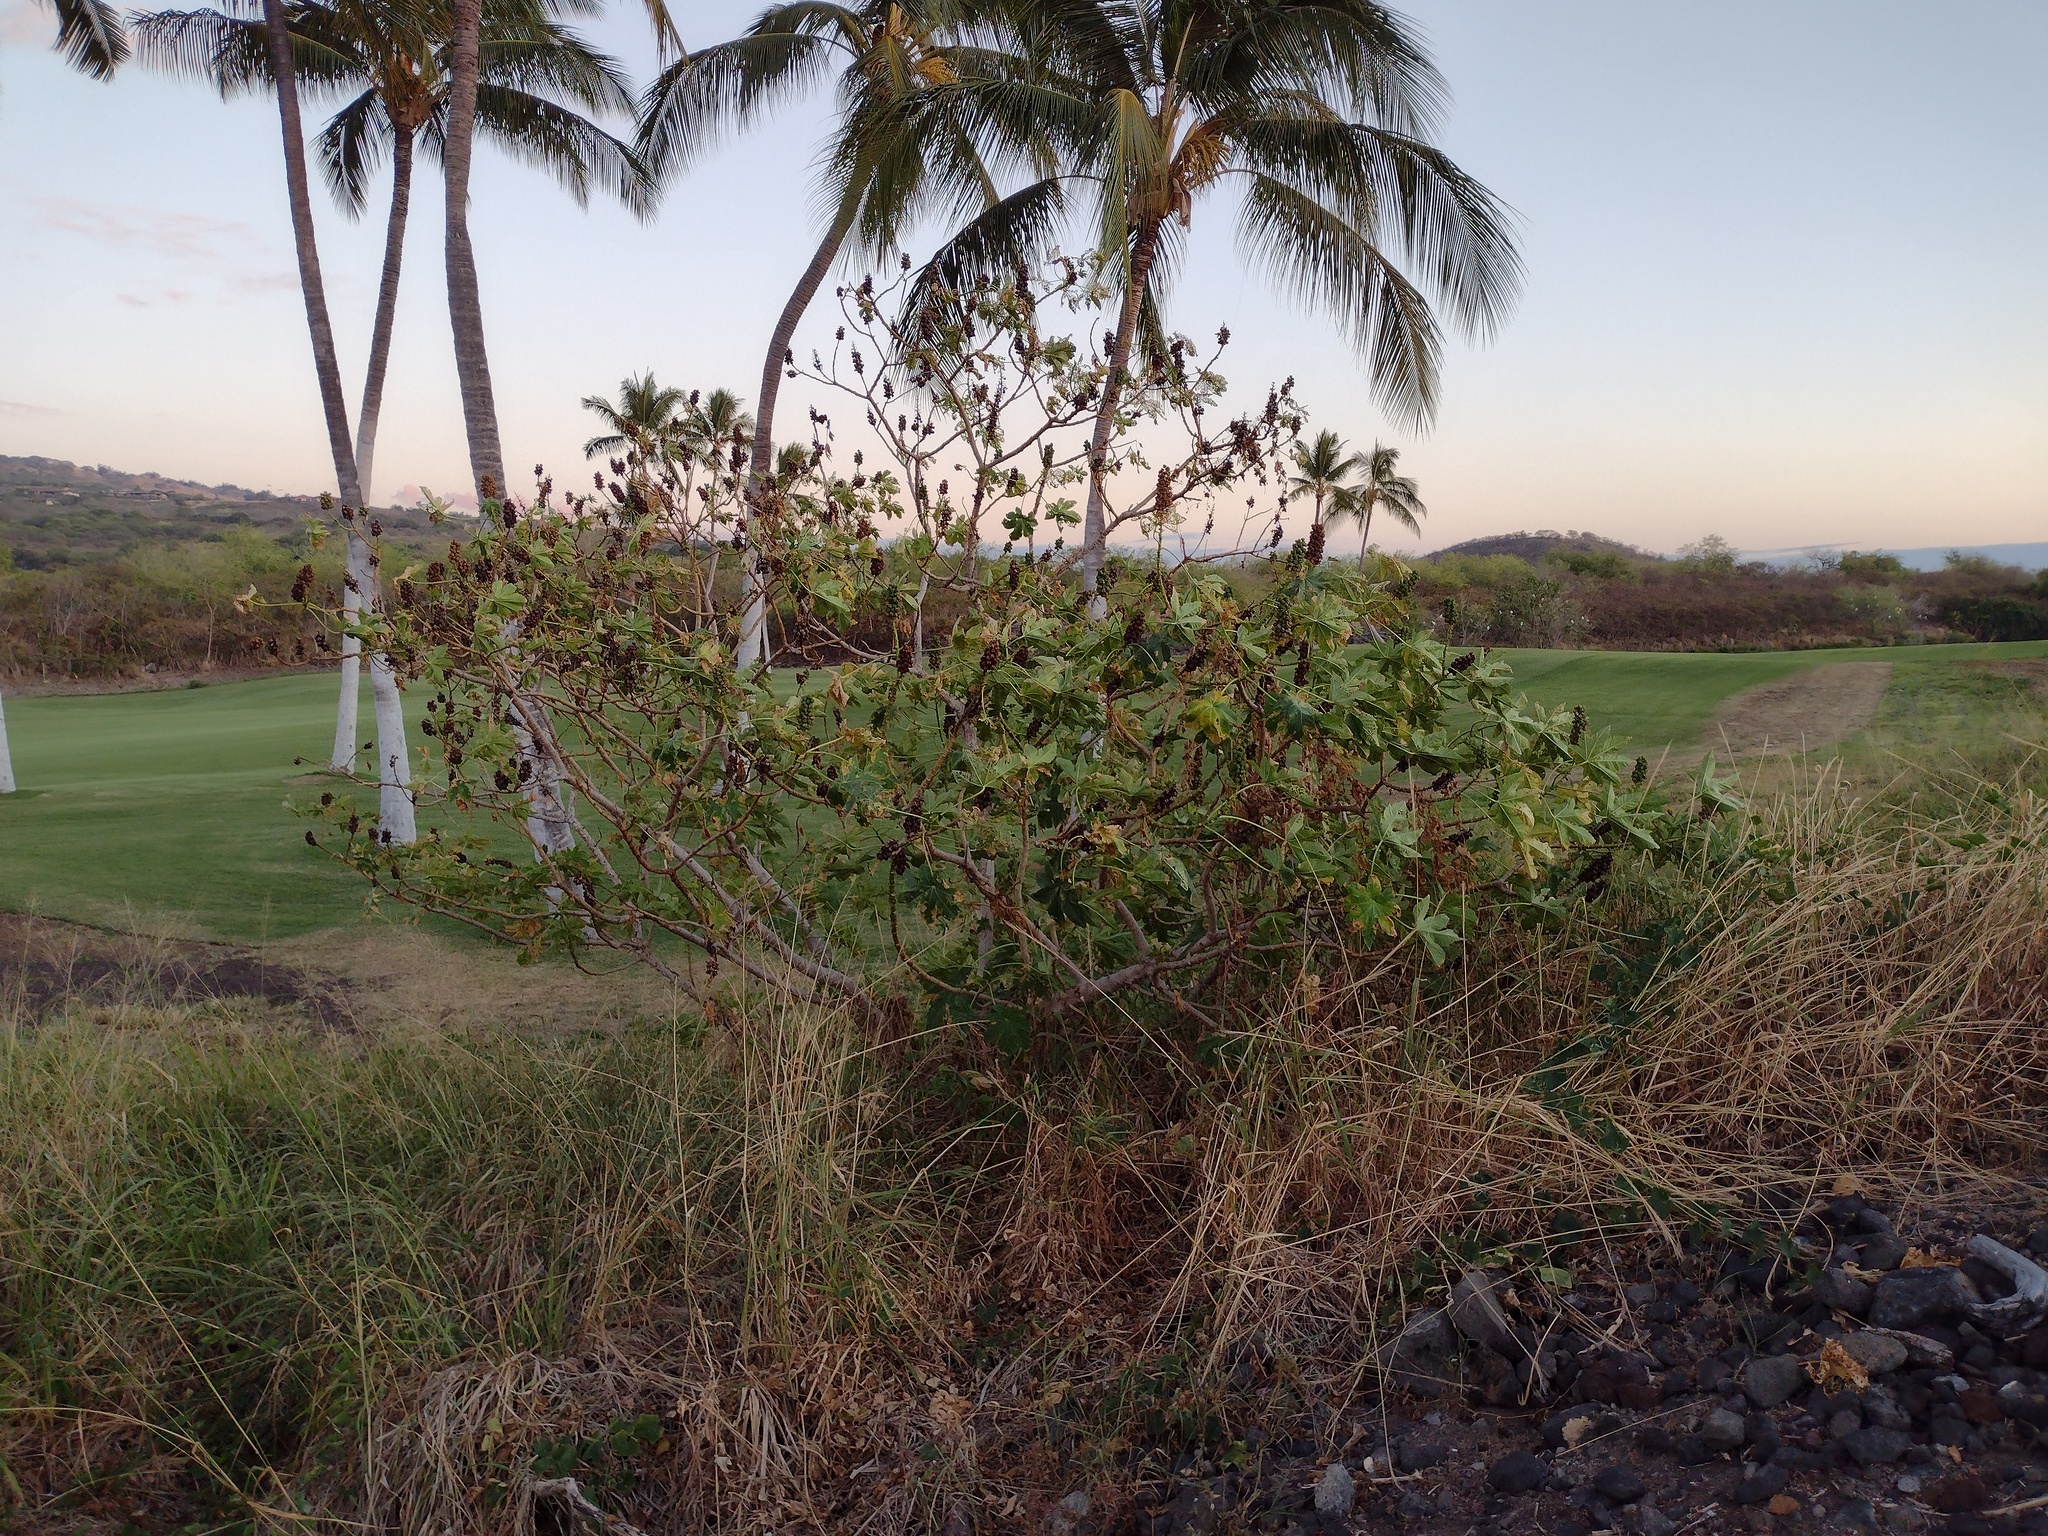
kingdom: Plantae
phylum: Tracheophyta
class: Magnoliopsida
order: Malpighiales
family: Euphorbiaceae
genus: Ricinus
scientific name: Ricinus communis
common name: Castor-oil-plant
